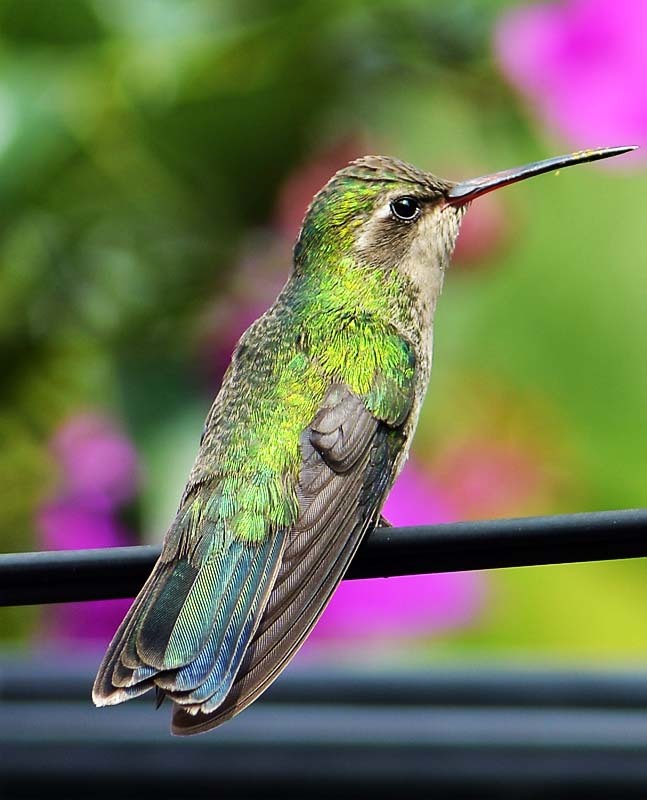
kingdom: Animalia
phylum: Chordata
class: Aves
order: Apodiformes
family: Trochilidae
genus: Cynanthus
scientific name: Cynanthus latirostris
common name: Broad-billed hummingbird
